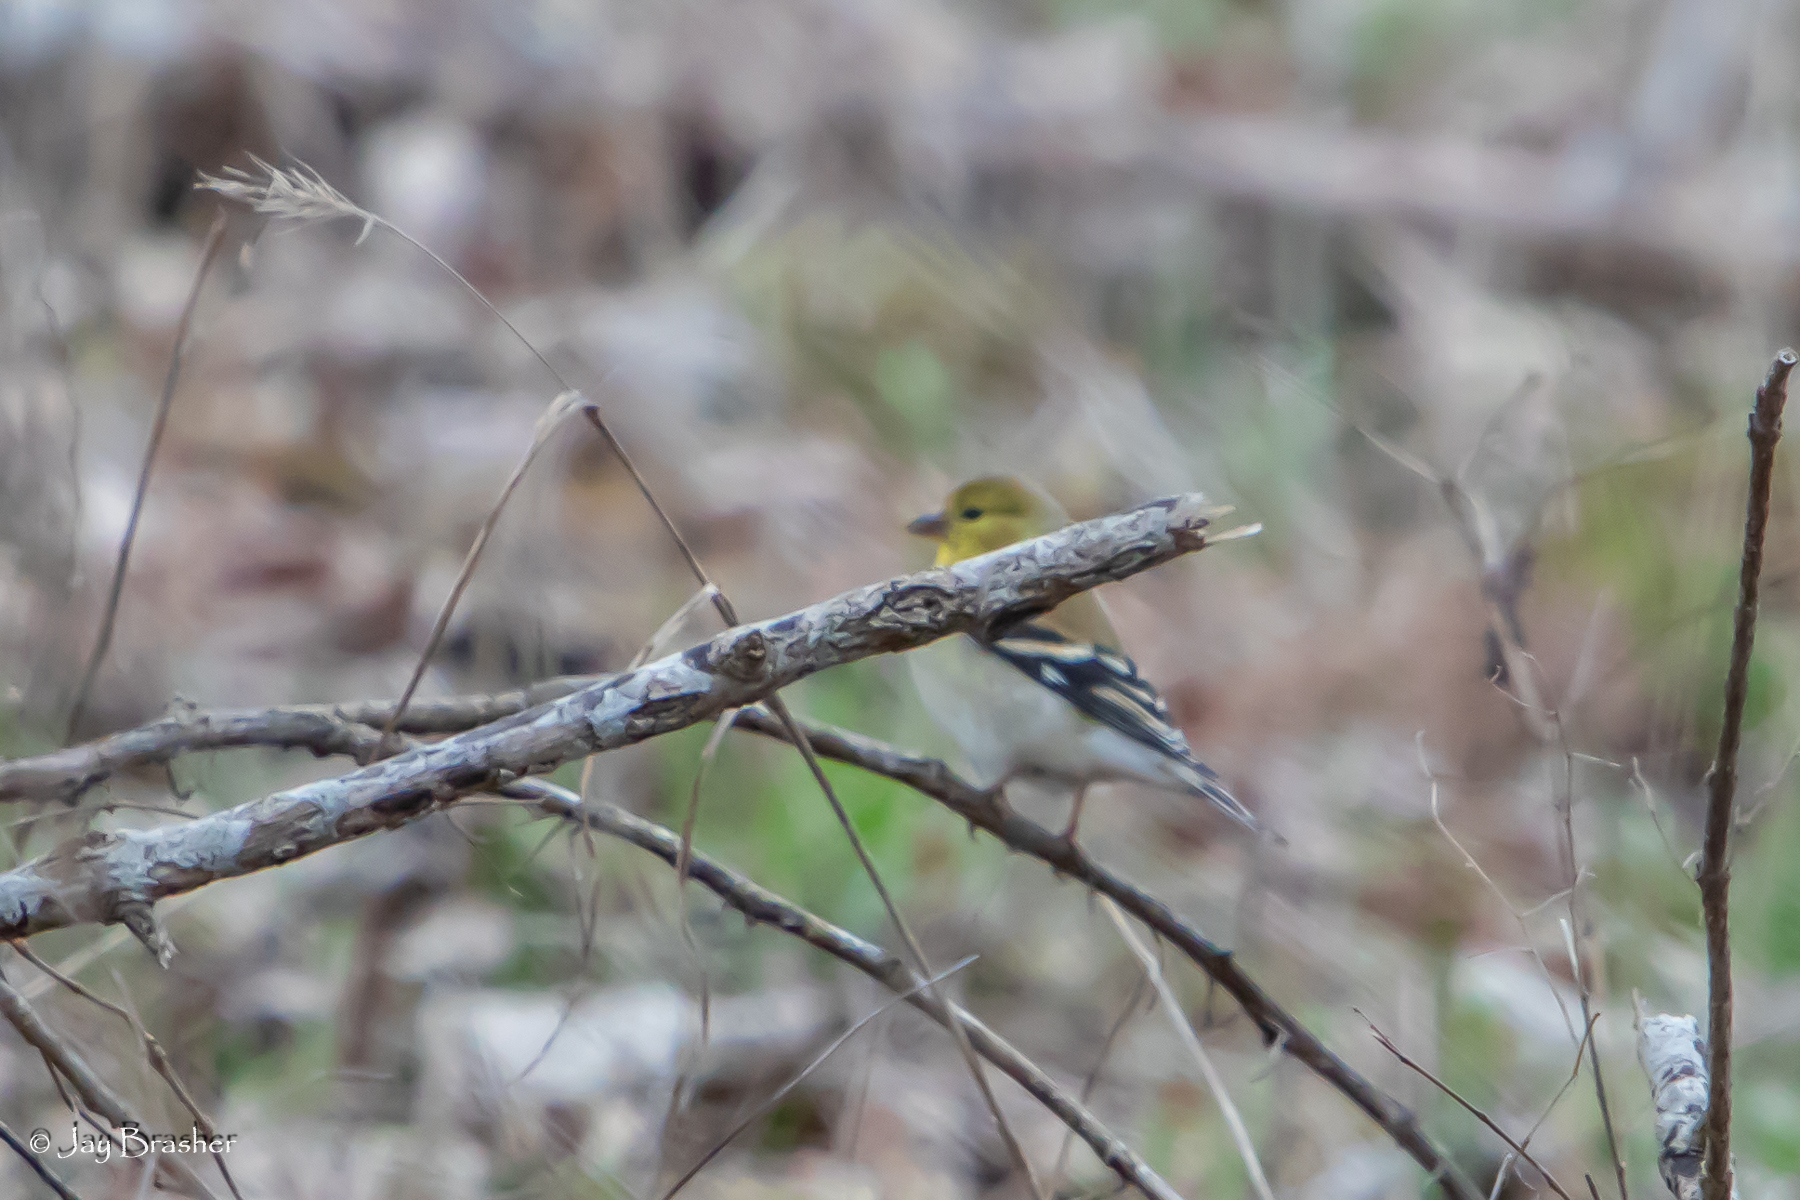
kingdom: Animalia
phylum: Chordata
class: Aves
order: Passeriformes
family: Fringillidae
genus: Spinus
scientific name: Spinus tristis
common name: American goldfinch
